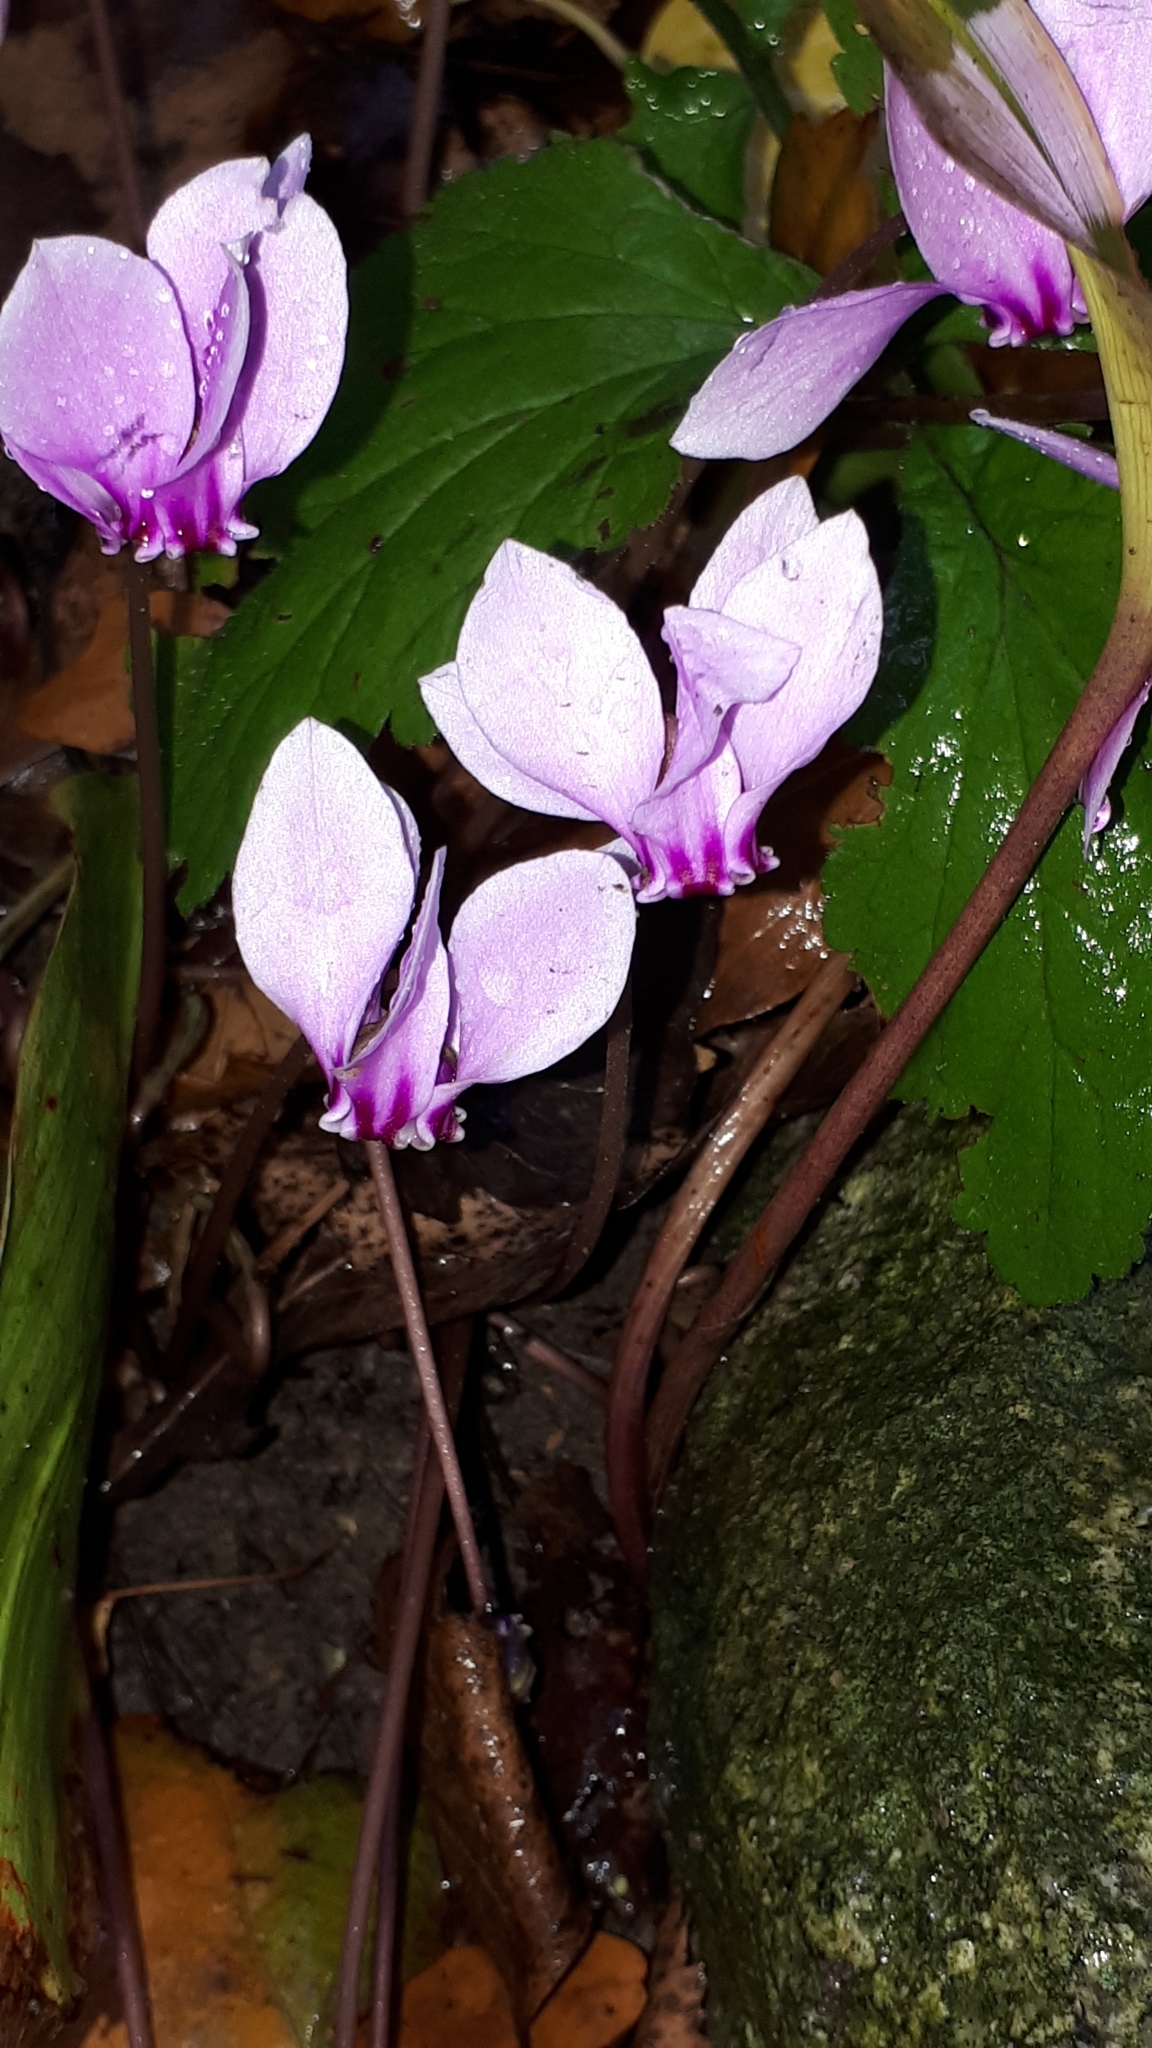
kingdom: Plantae
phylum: Tracheophyta
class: Magnoliopsida
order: Ericales
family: Primulaceae
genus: Cyclamen
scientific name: Cyclamen hederifolium
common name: Sowbread
